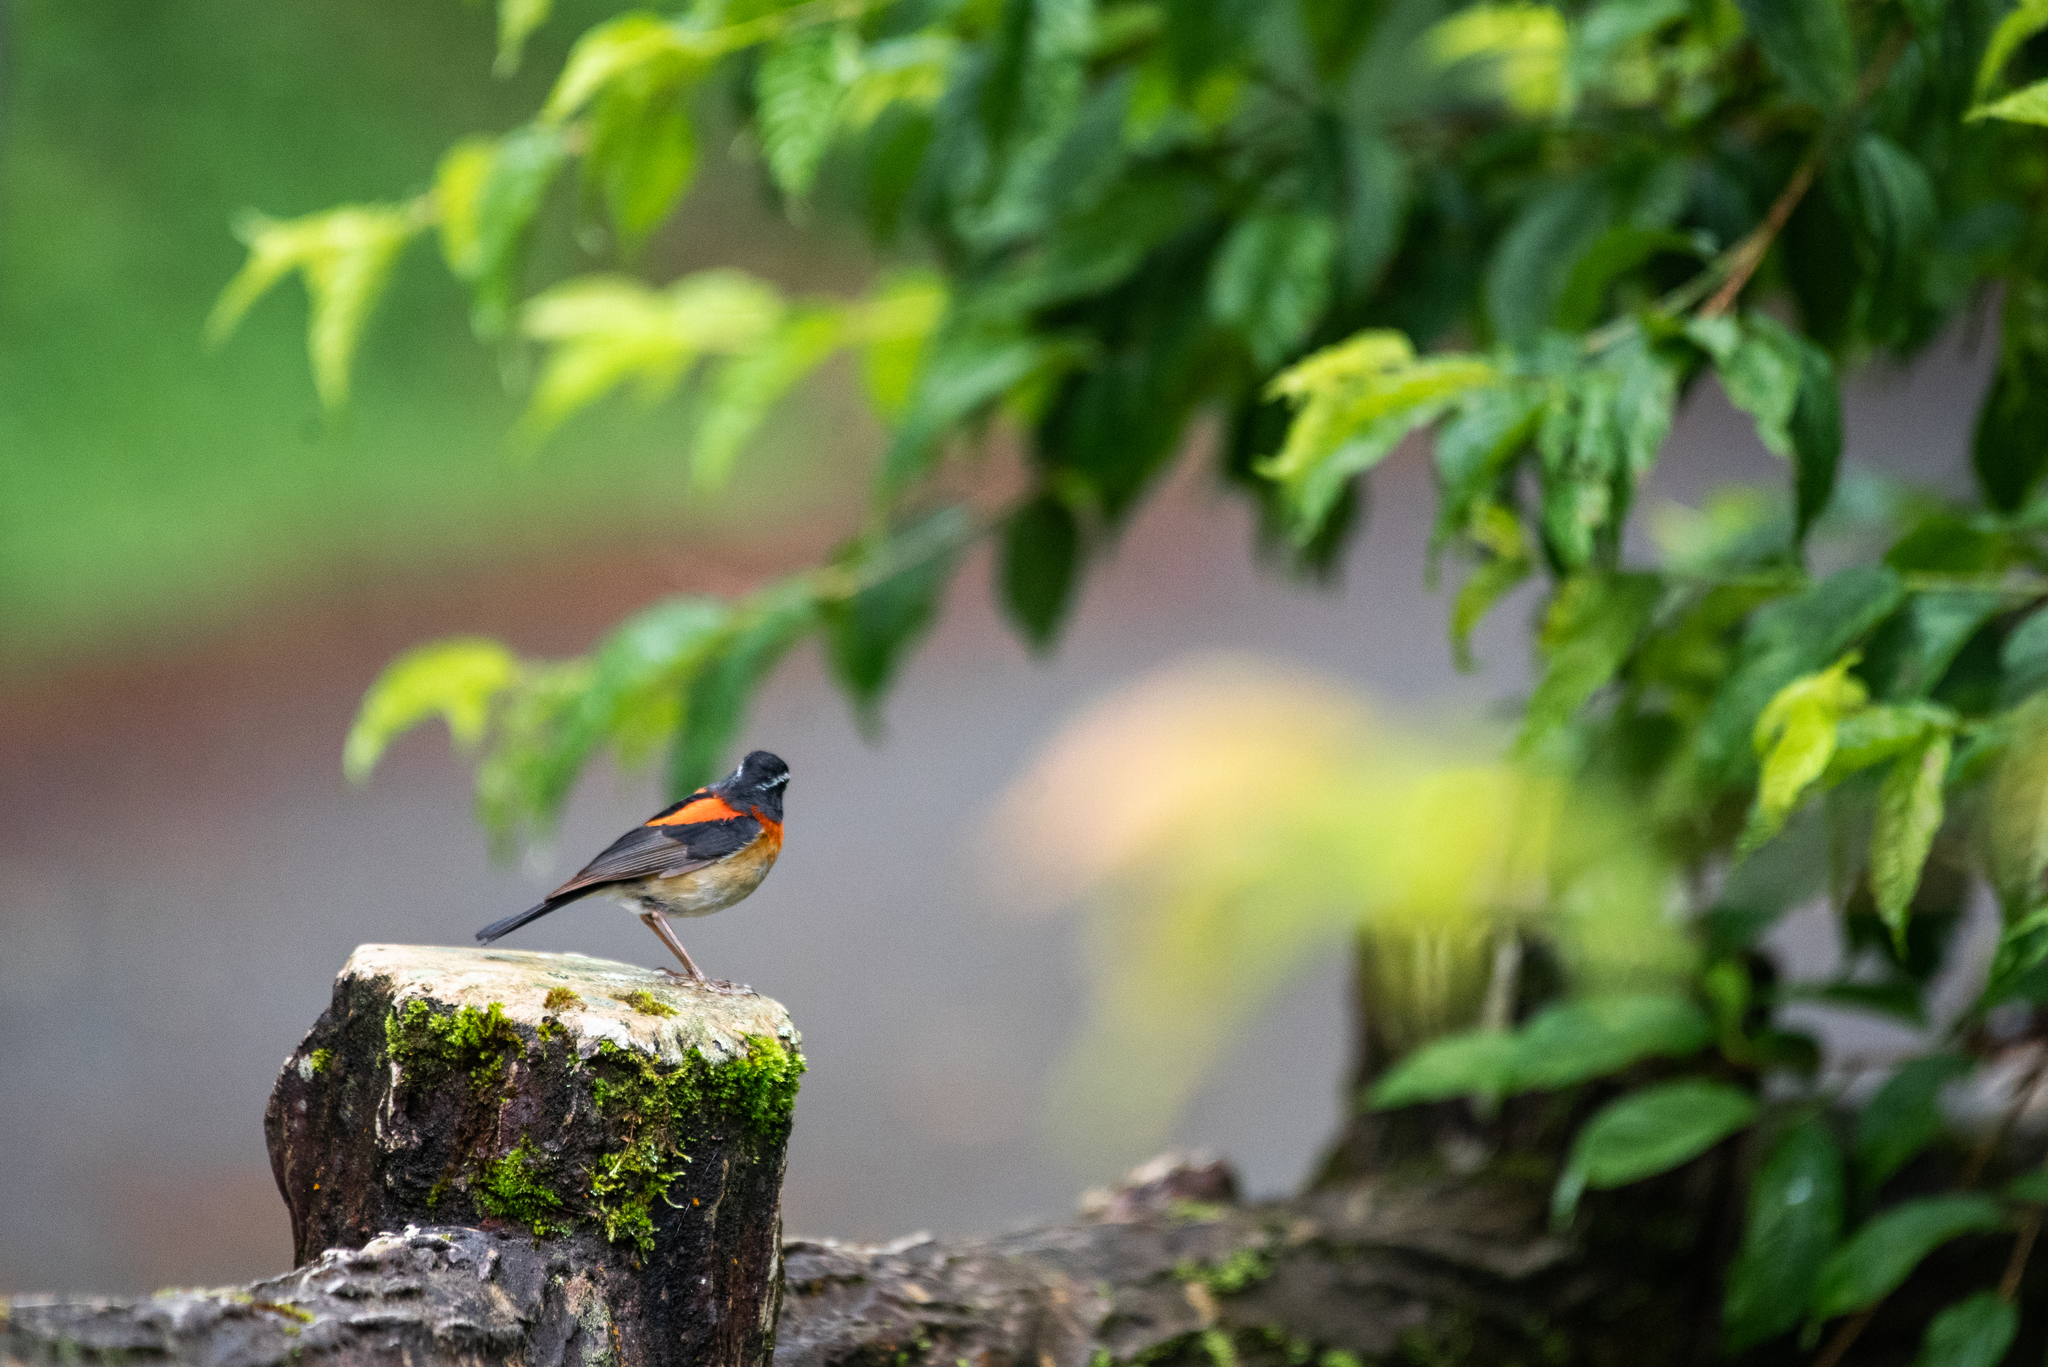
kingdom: Animalia
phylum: Chordata
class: Aves
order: Passeriformes
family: Muscicapidae
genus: Tarsiger
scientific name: Tarsiger johnstoniae
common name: Collared bush robin
